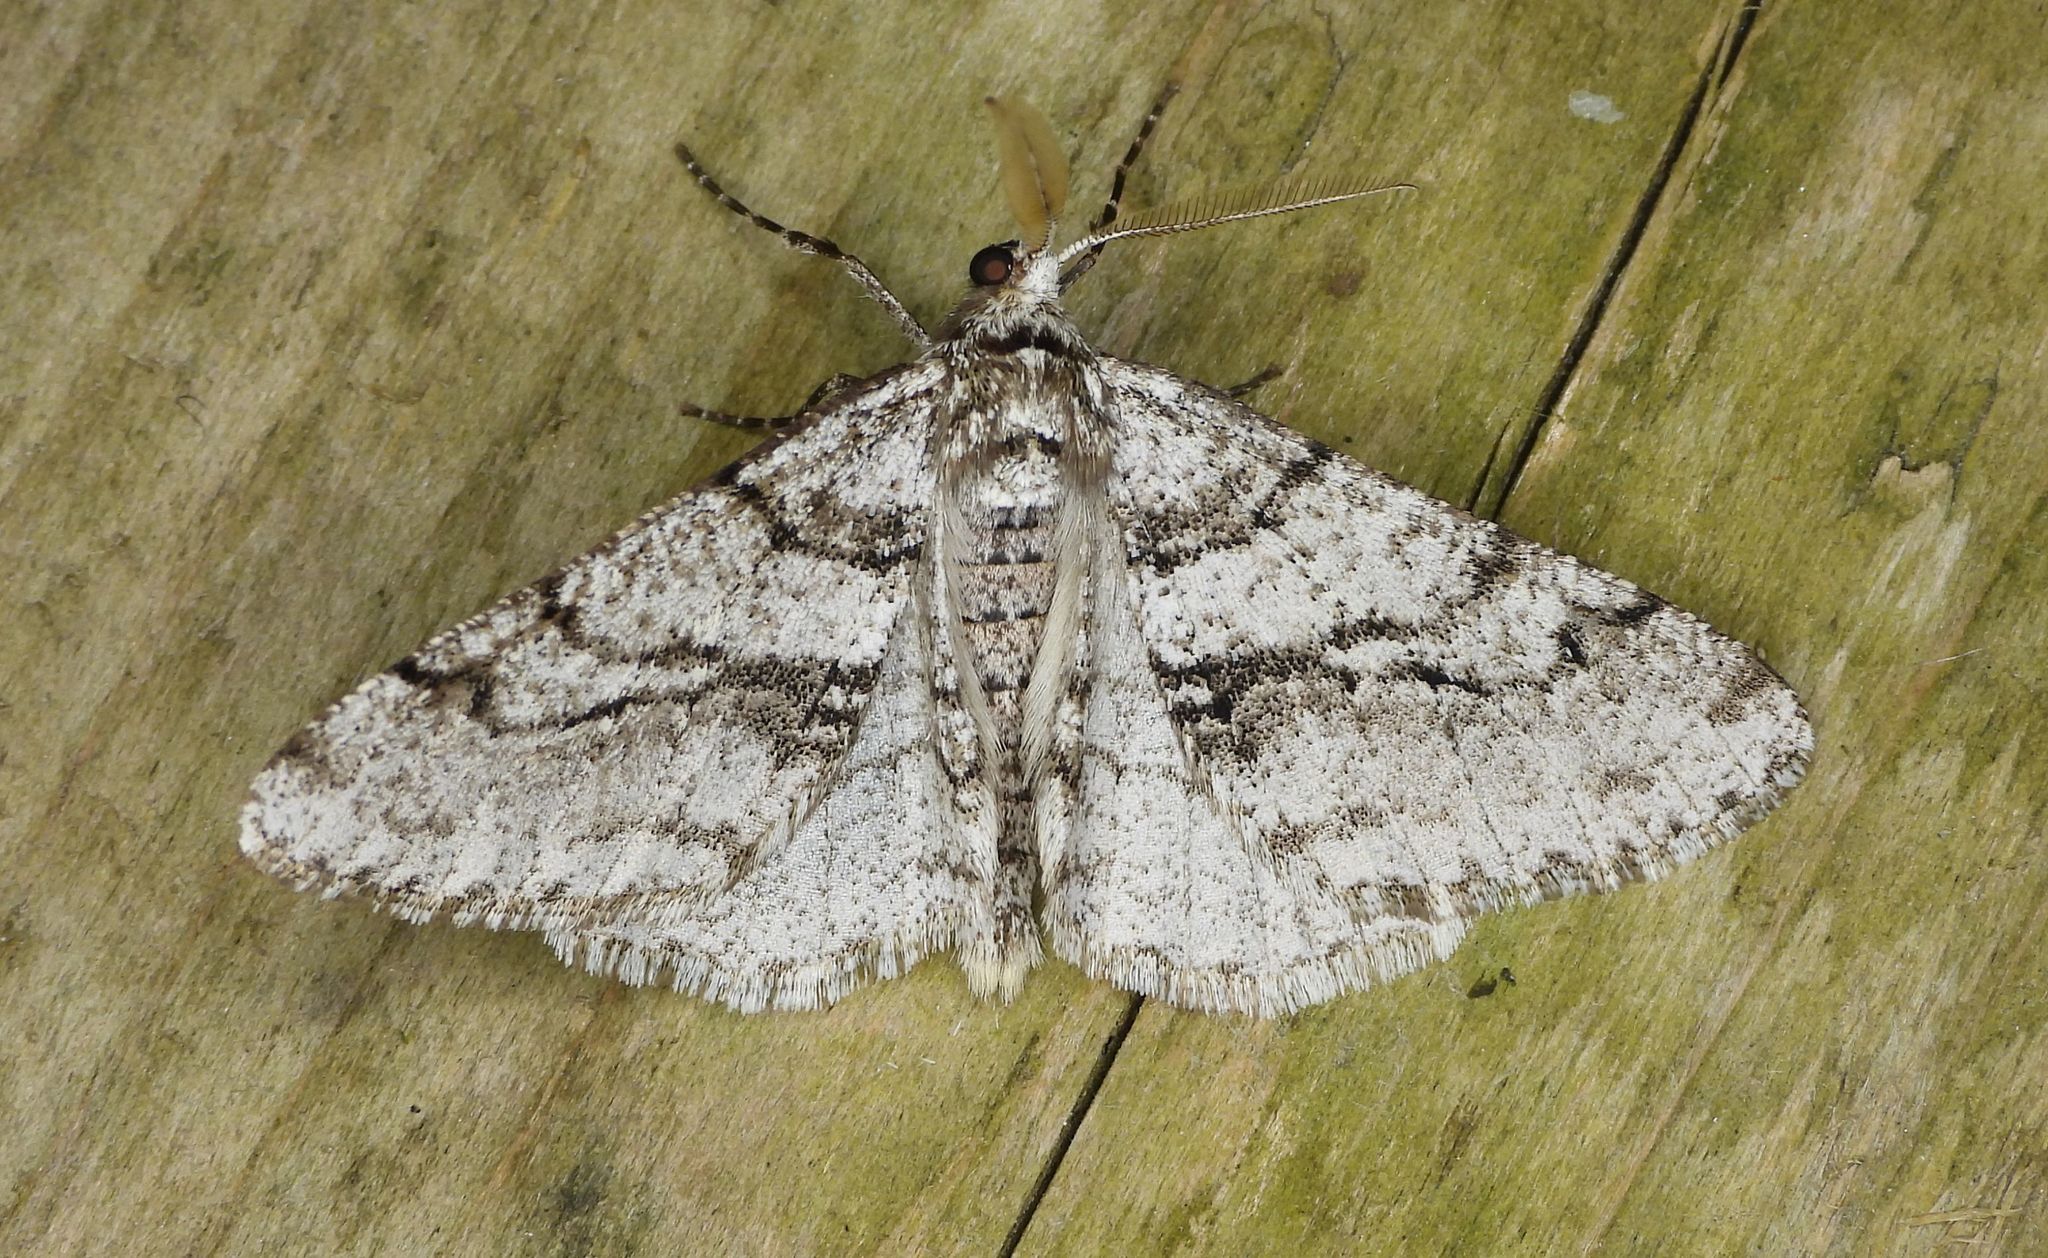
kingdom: Animalia
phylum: Arthropoda
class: Insecta
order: Lepidoptera
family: Geometridae
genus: Phigalia
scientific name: Phigalia titea
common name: Spiny looper
